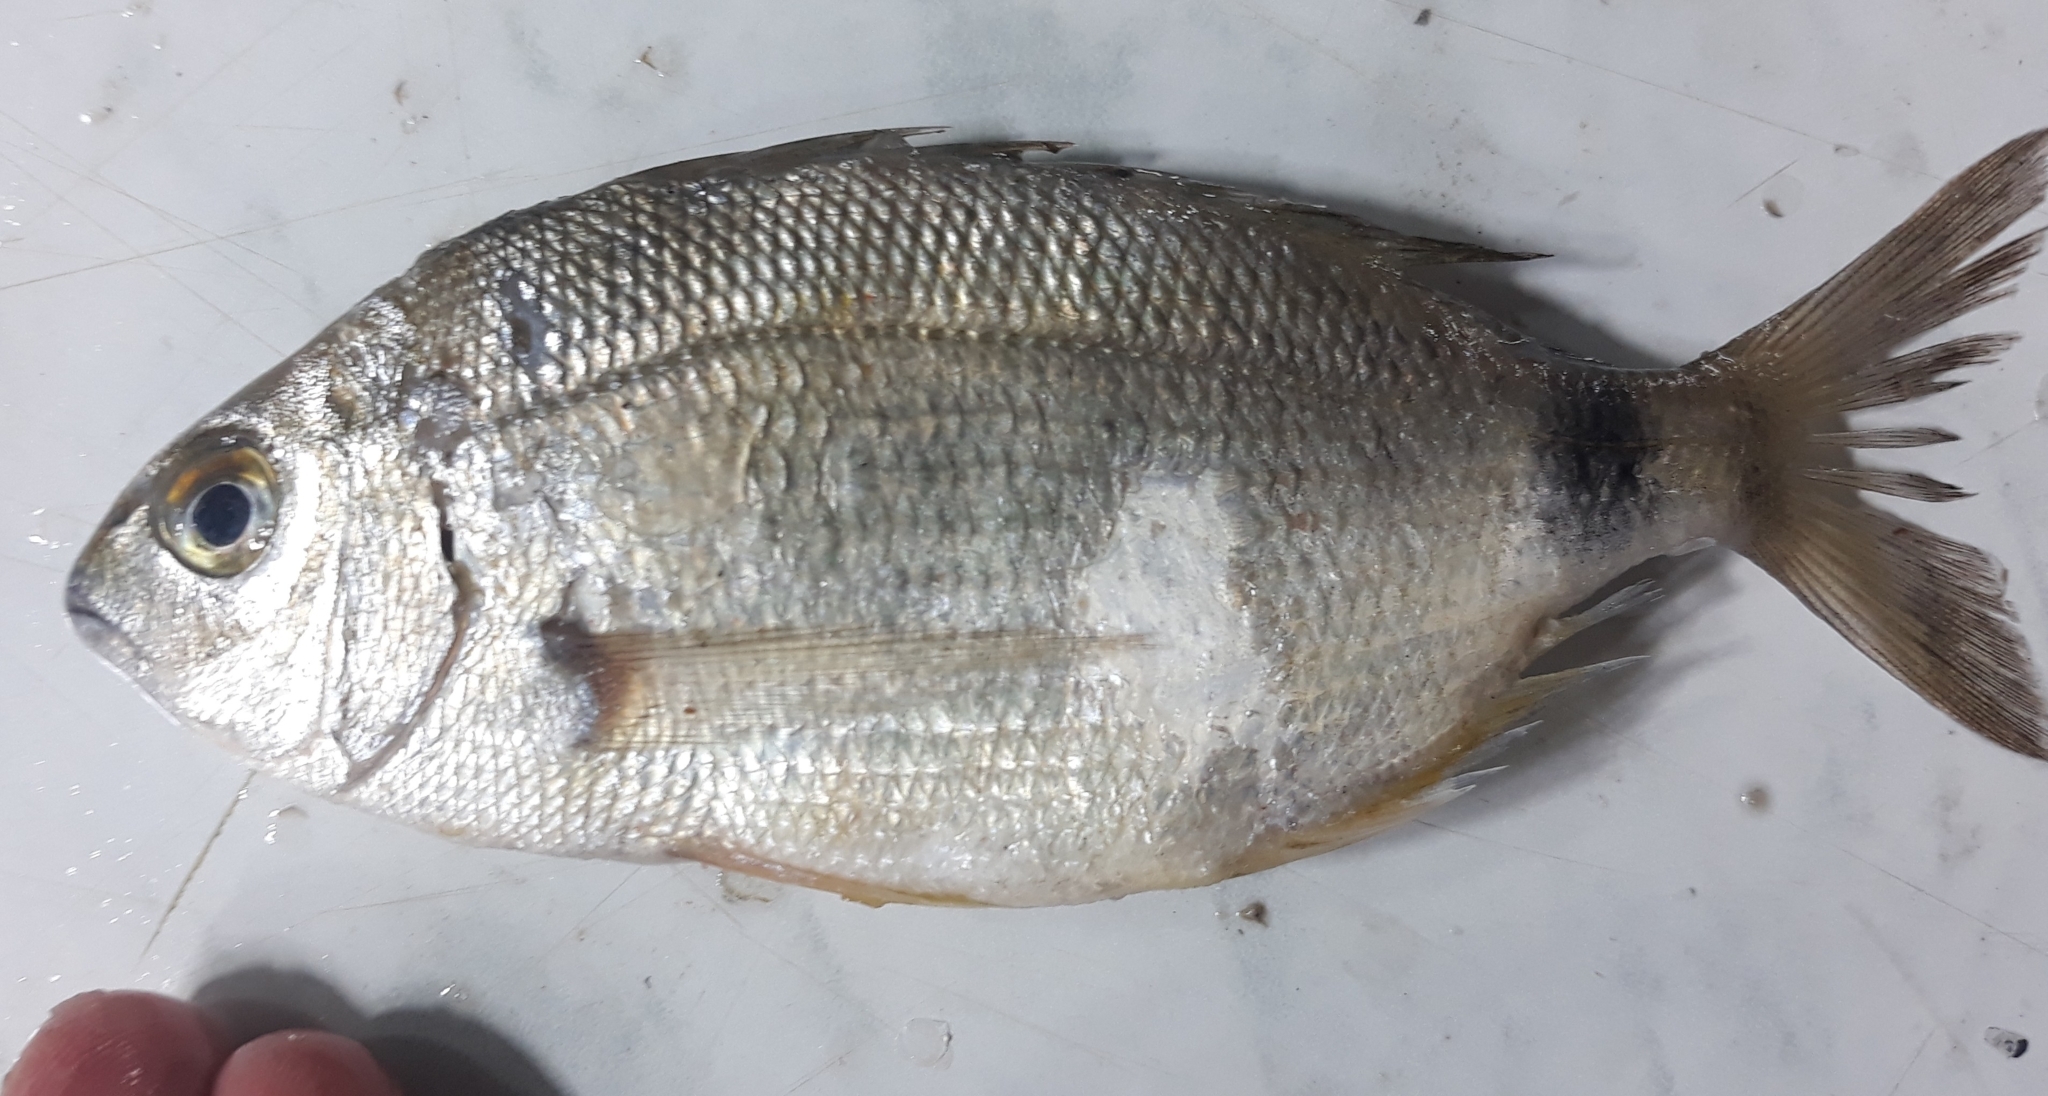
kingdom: Animalia
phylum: Chordata
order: Perciformes
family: Sparidae
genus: Diplodus
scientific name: Diplodus annularis
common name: Annular seabream
